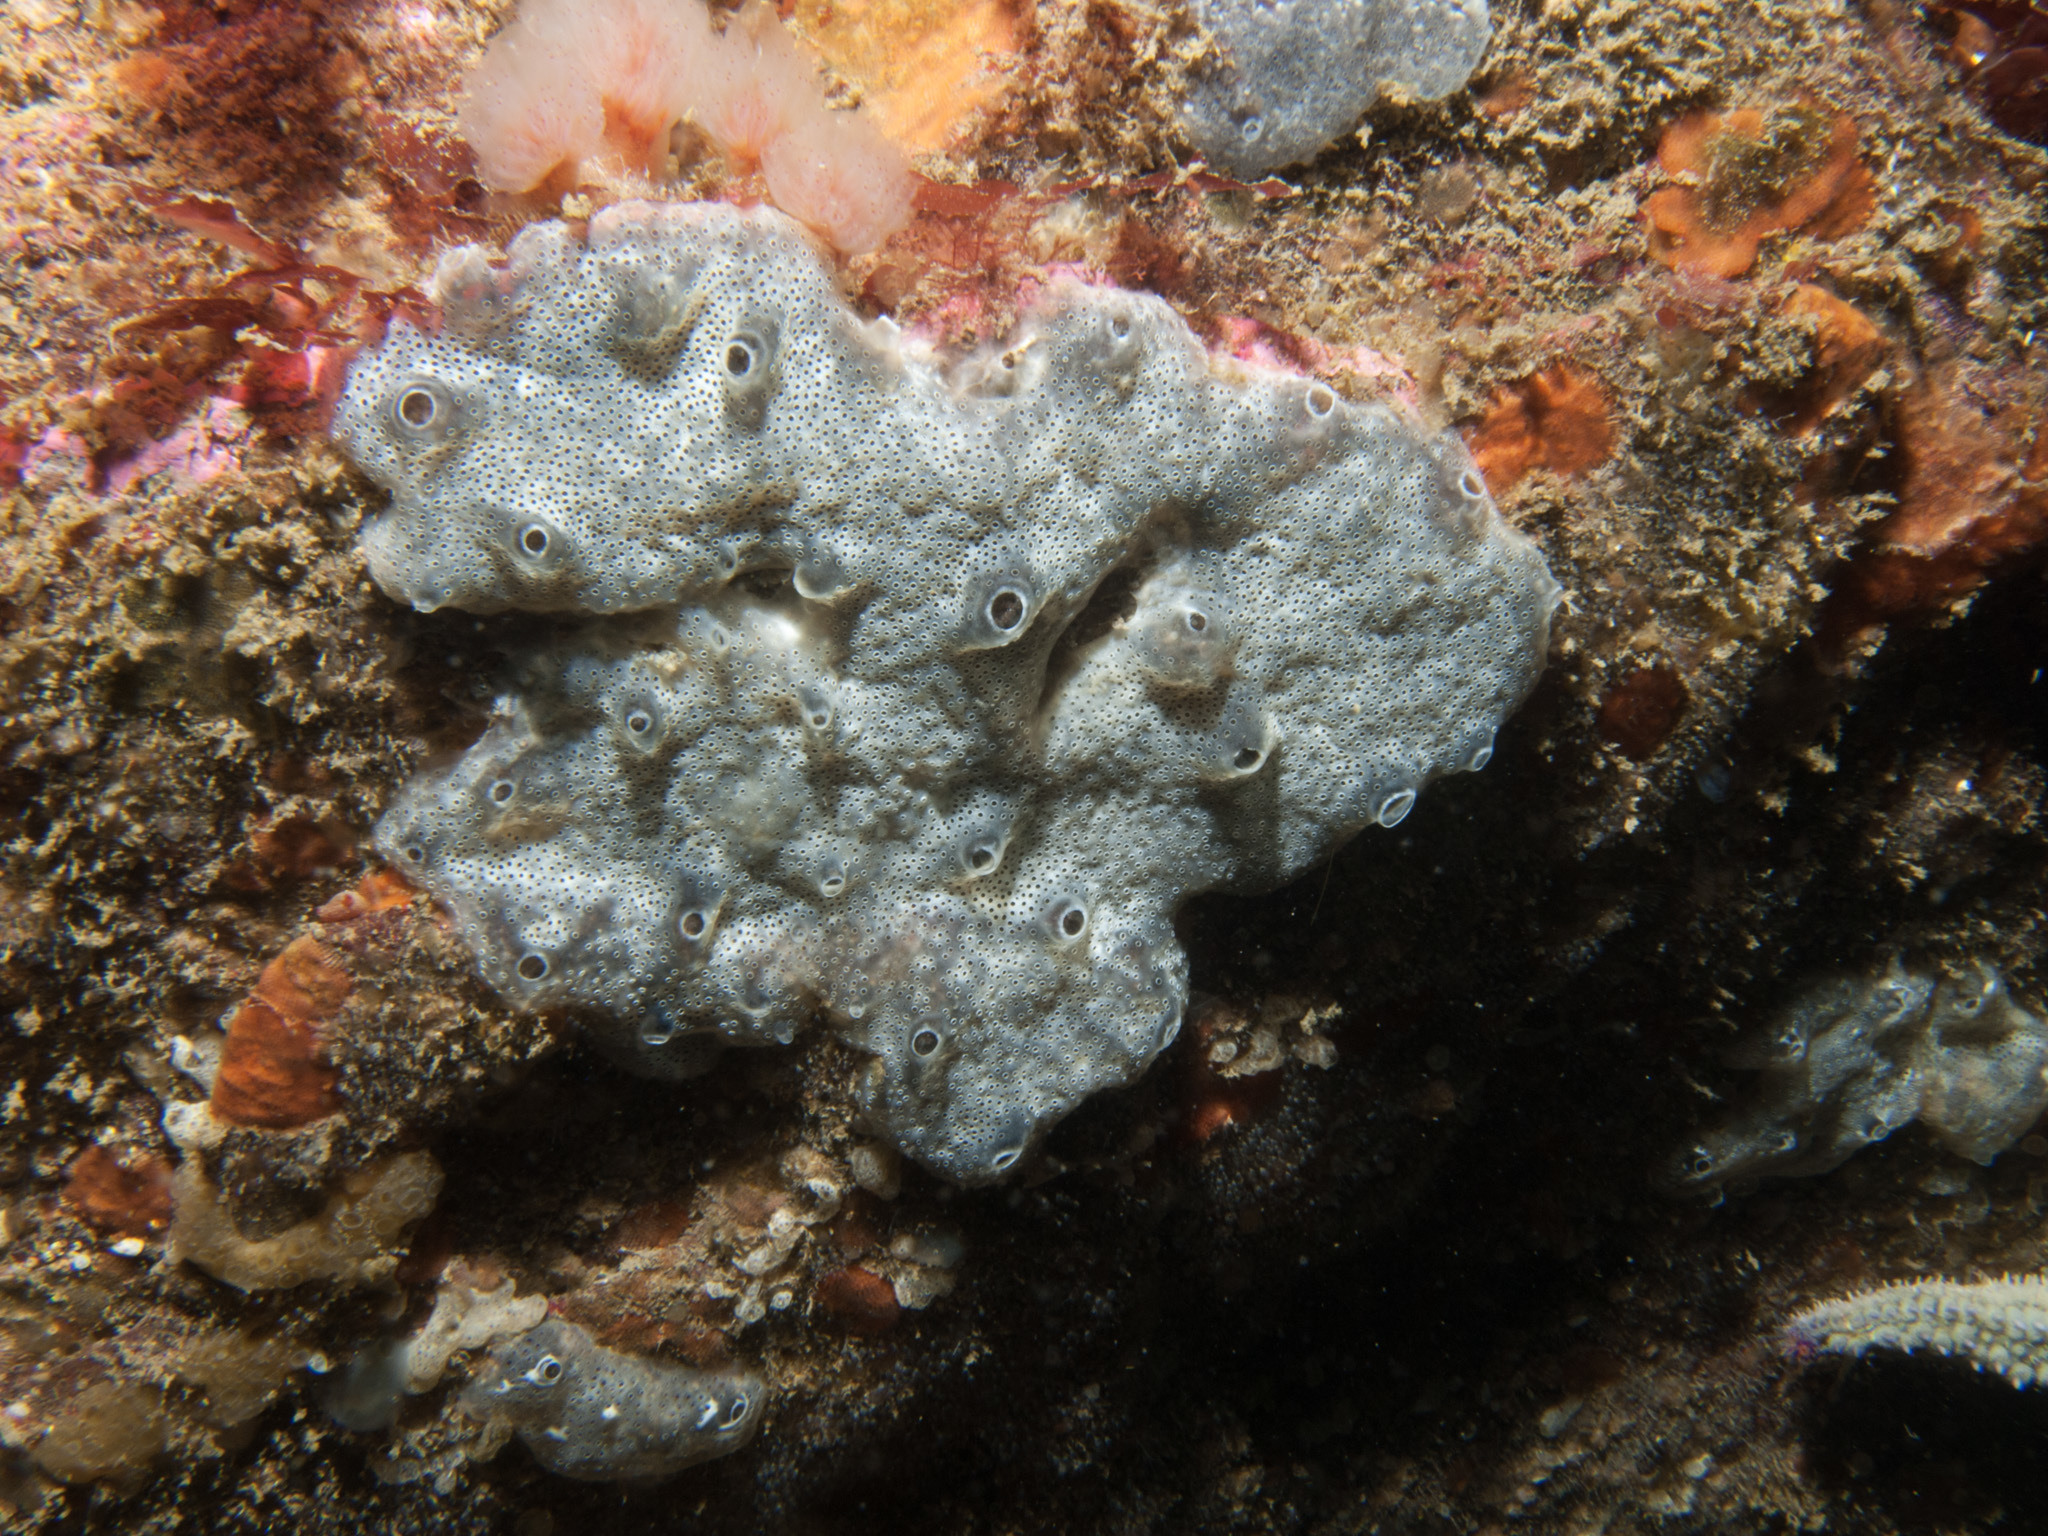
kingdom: Animalia
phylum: Chordata
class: Ascidiacea
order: Aplousobranchia
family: Didemnidae
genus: Diplosoma
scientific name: Diplosoma spongiforme
